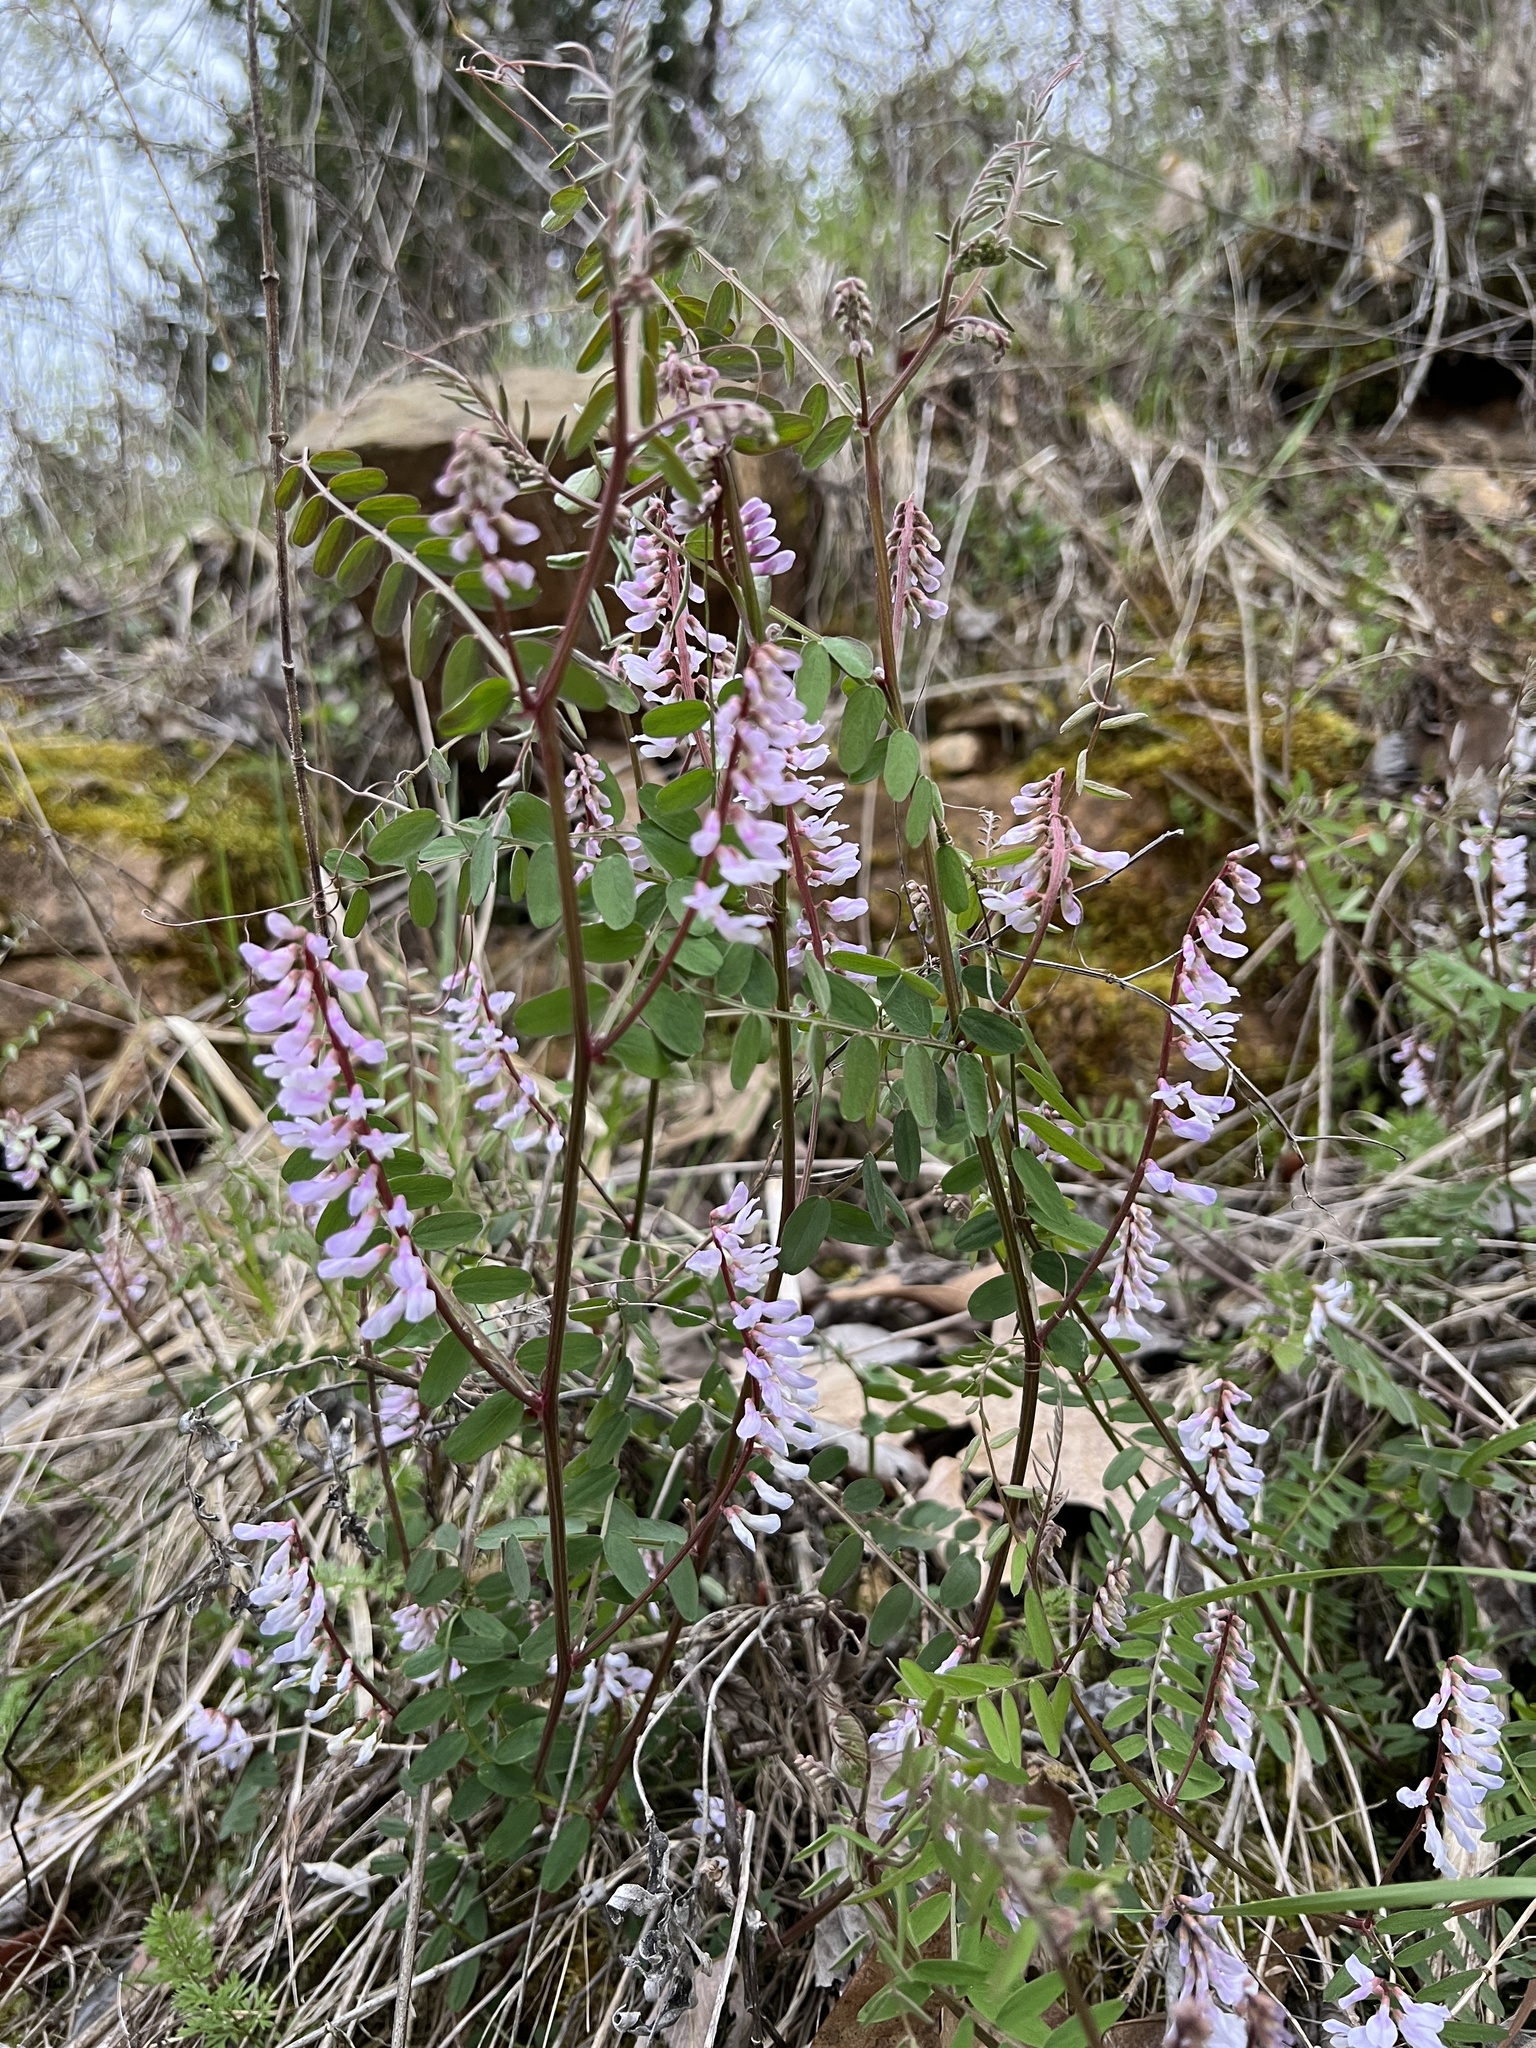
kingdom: Plantae
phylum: Tracheophyta
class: Magnoliopsida
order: Fabales
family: Fabaceae
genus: Vicia
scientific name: Vicia caroliniana
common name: Carolina vetch
